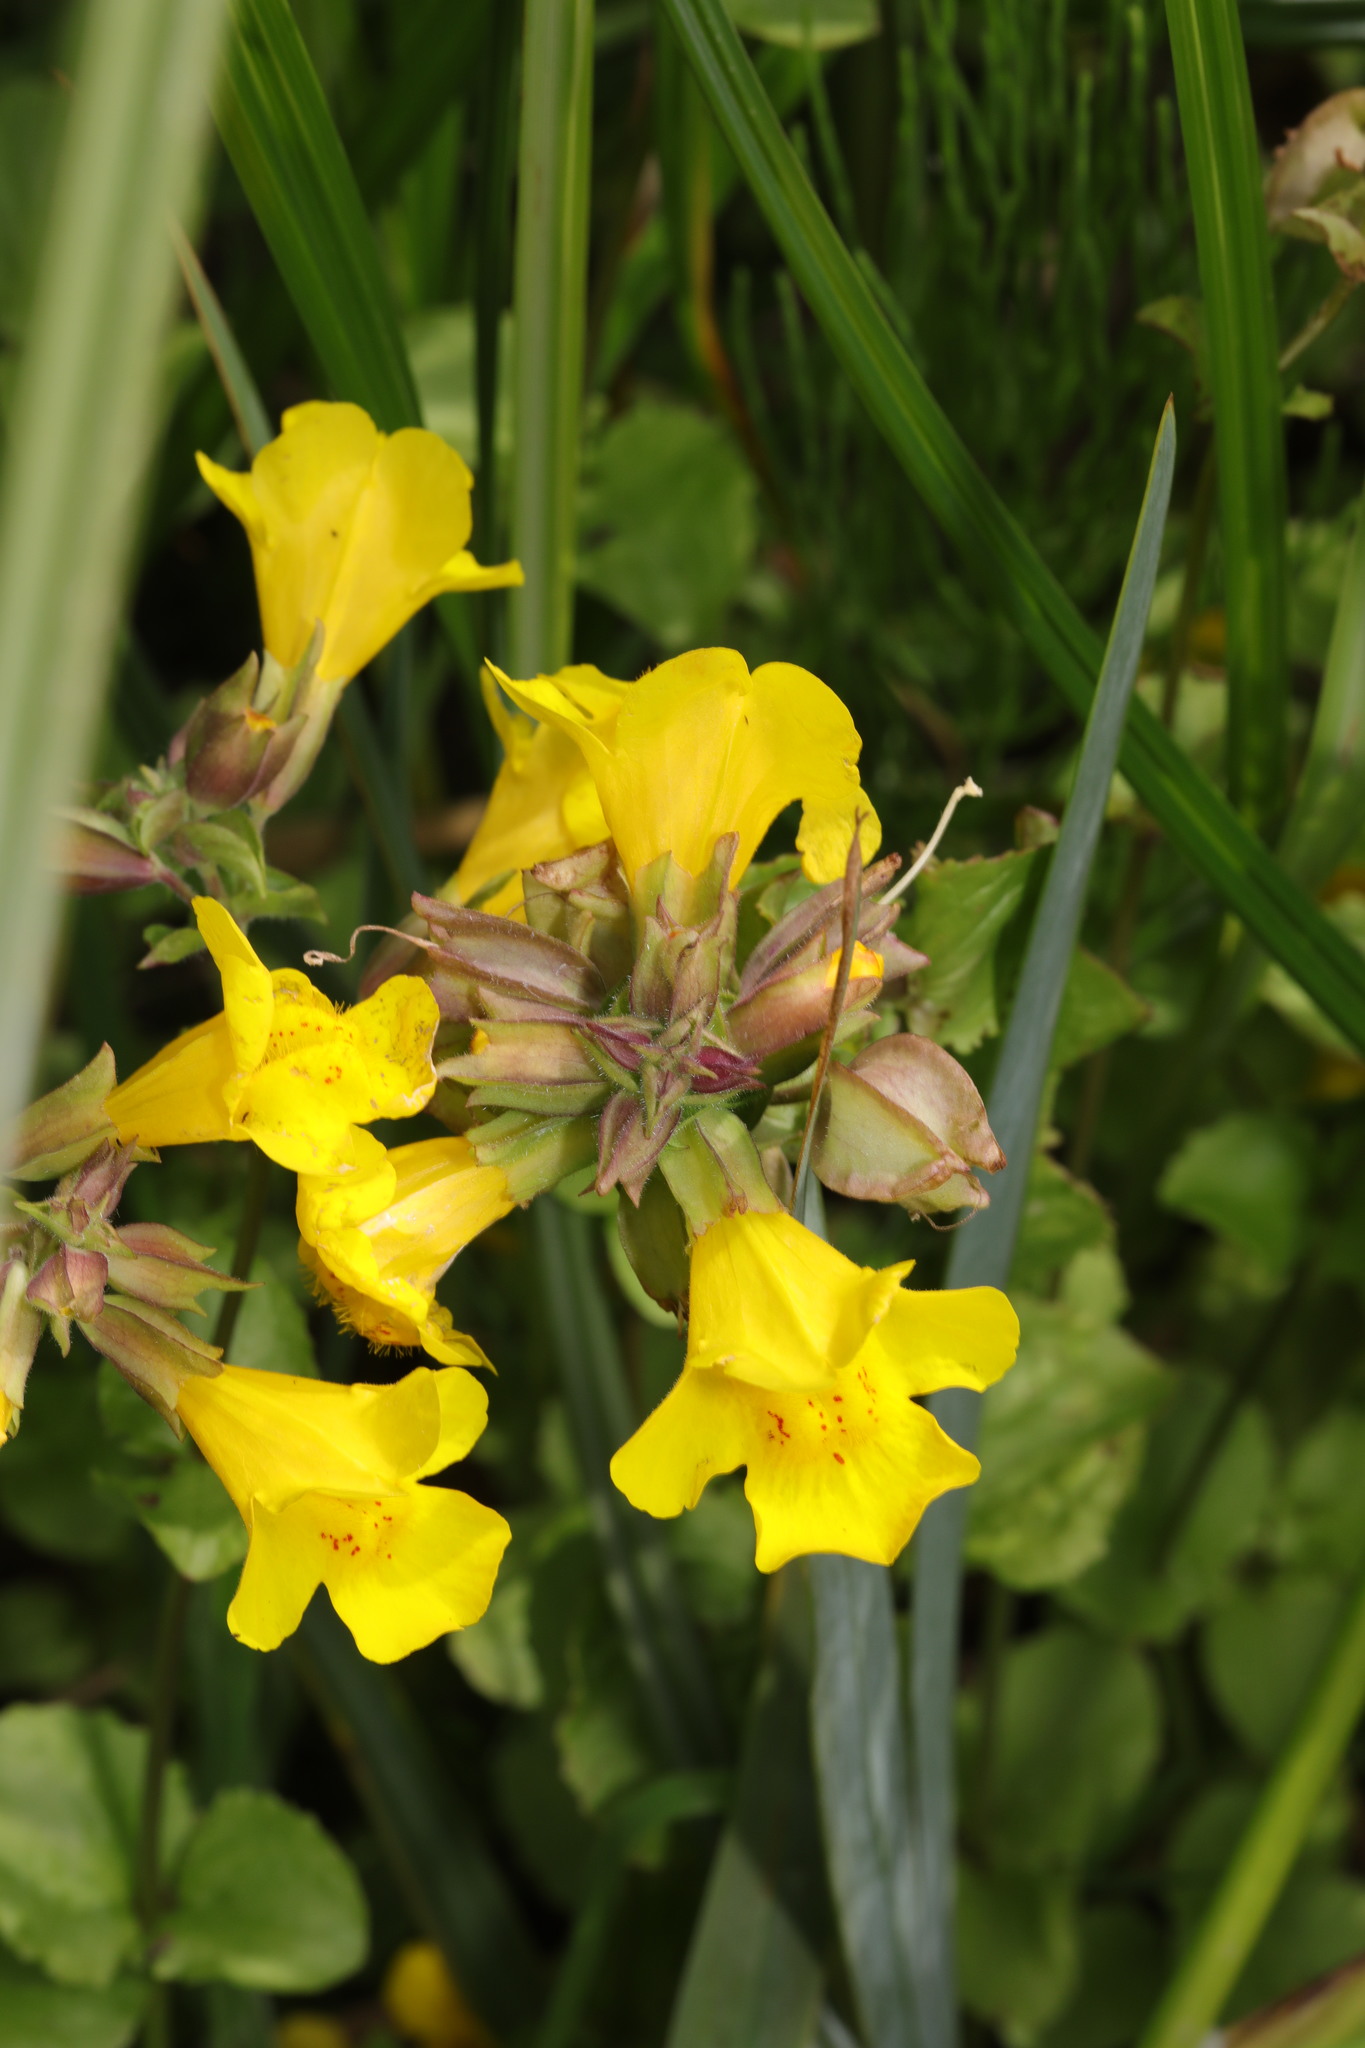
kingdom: Plantae
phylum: Tracheophyta
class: Magnoliopsida
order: Lamiales
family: Phrymaceae
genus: Erythranthe
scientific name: Erythranthe guttata
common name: Monkeyflower
